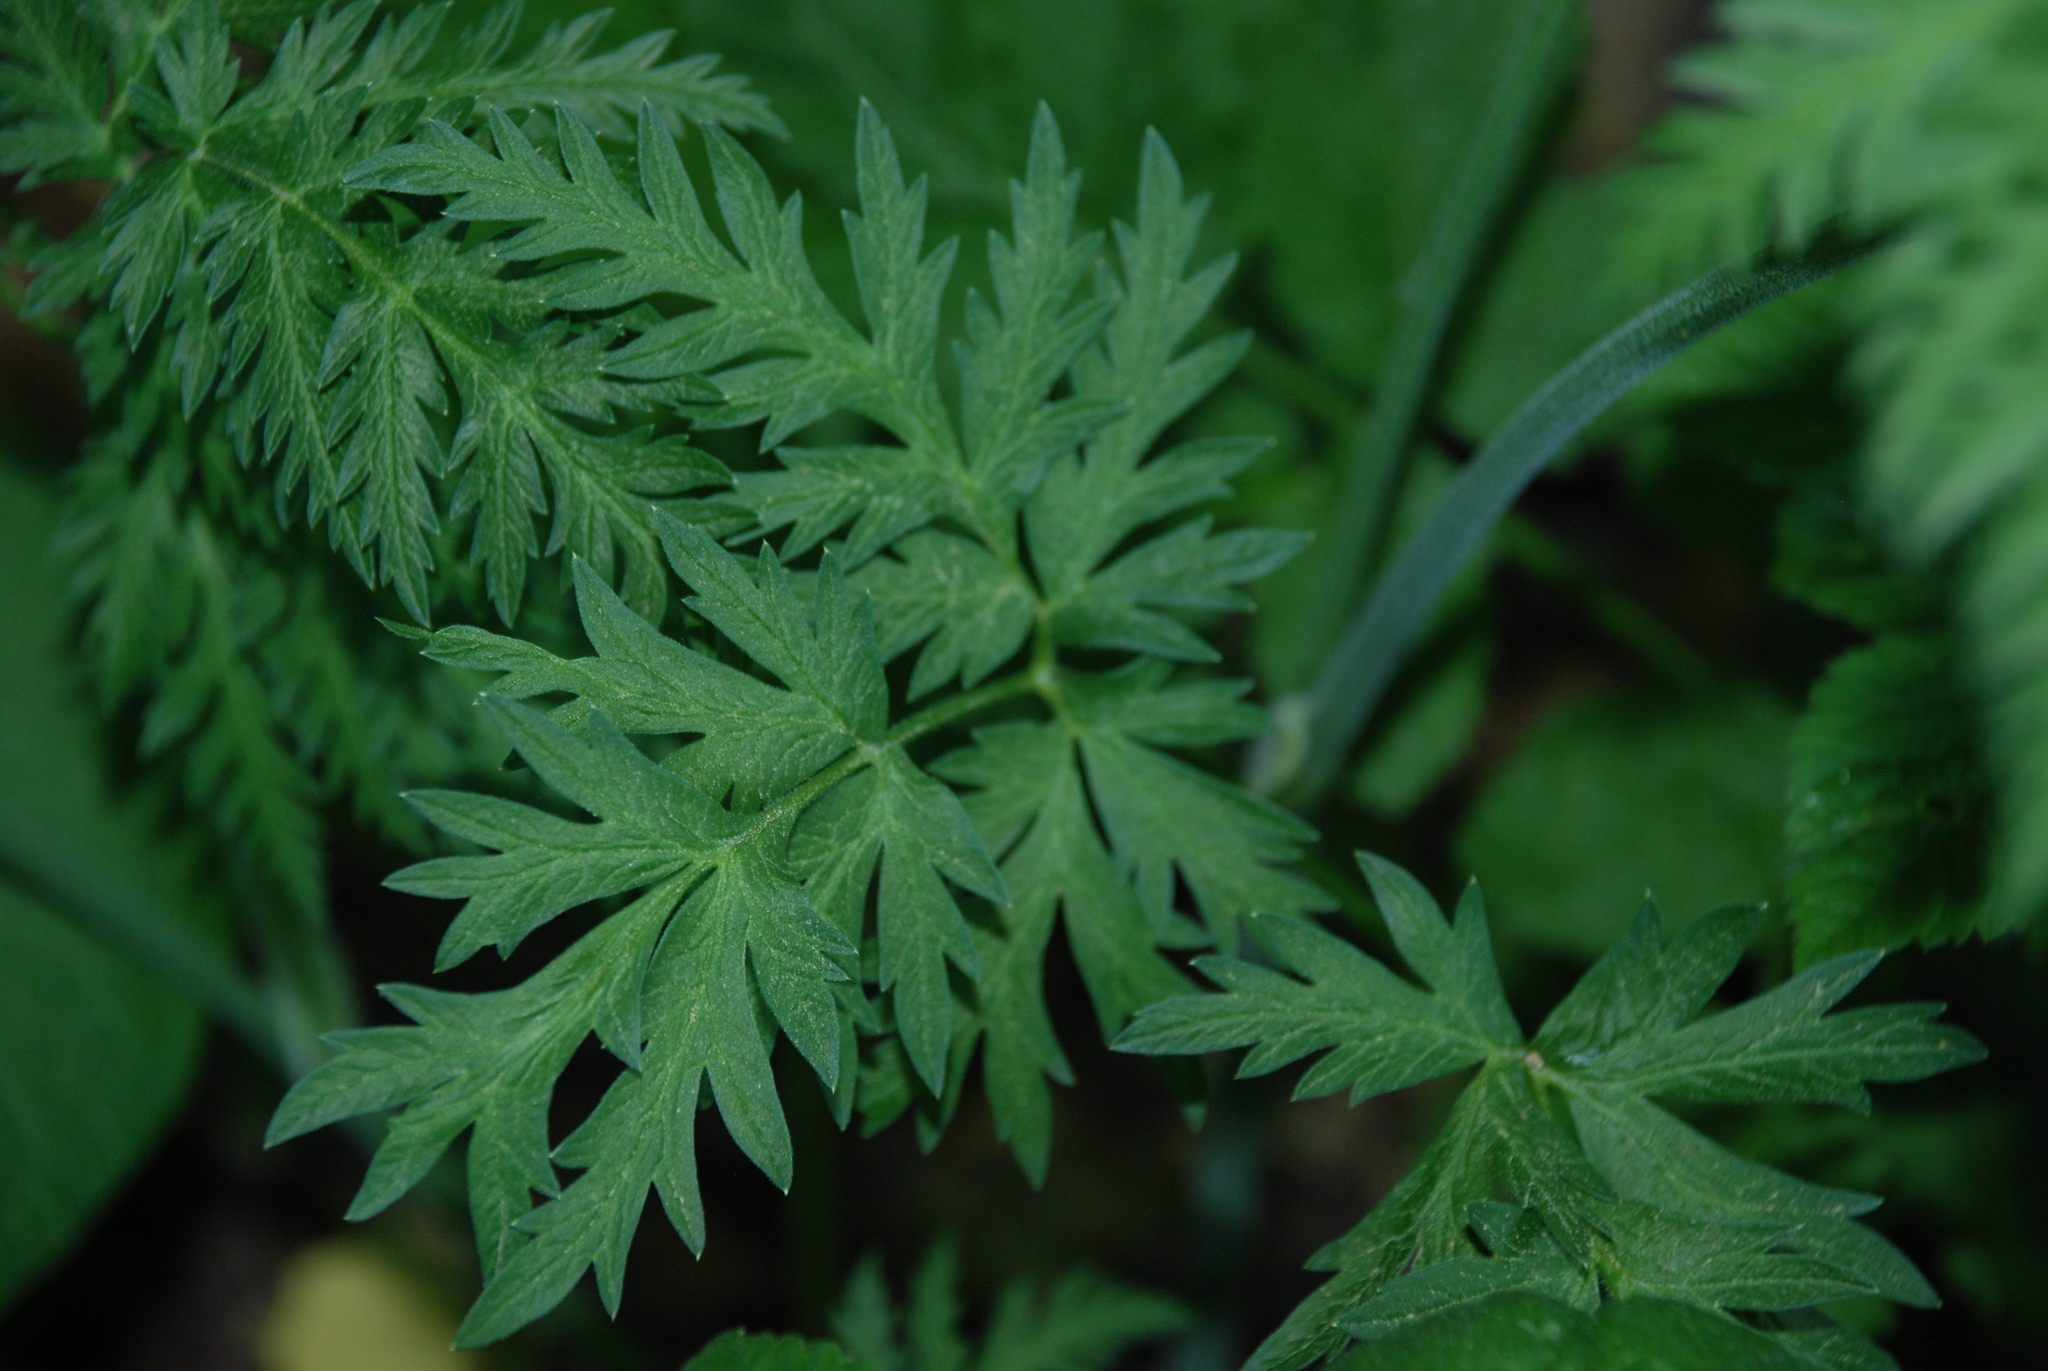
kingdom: Plantae
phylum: Tracheophyta
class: Magnoliopsida
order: Apiales
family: Apiaceae
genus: Seseli
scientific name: Seseli libanotis
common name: Mooncarrot
